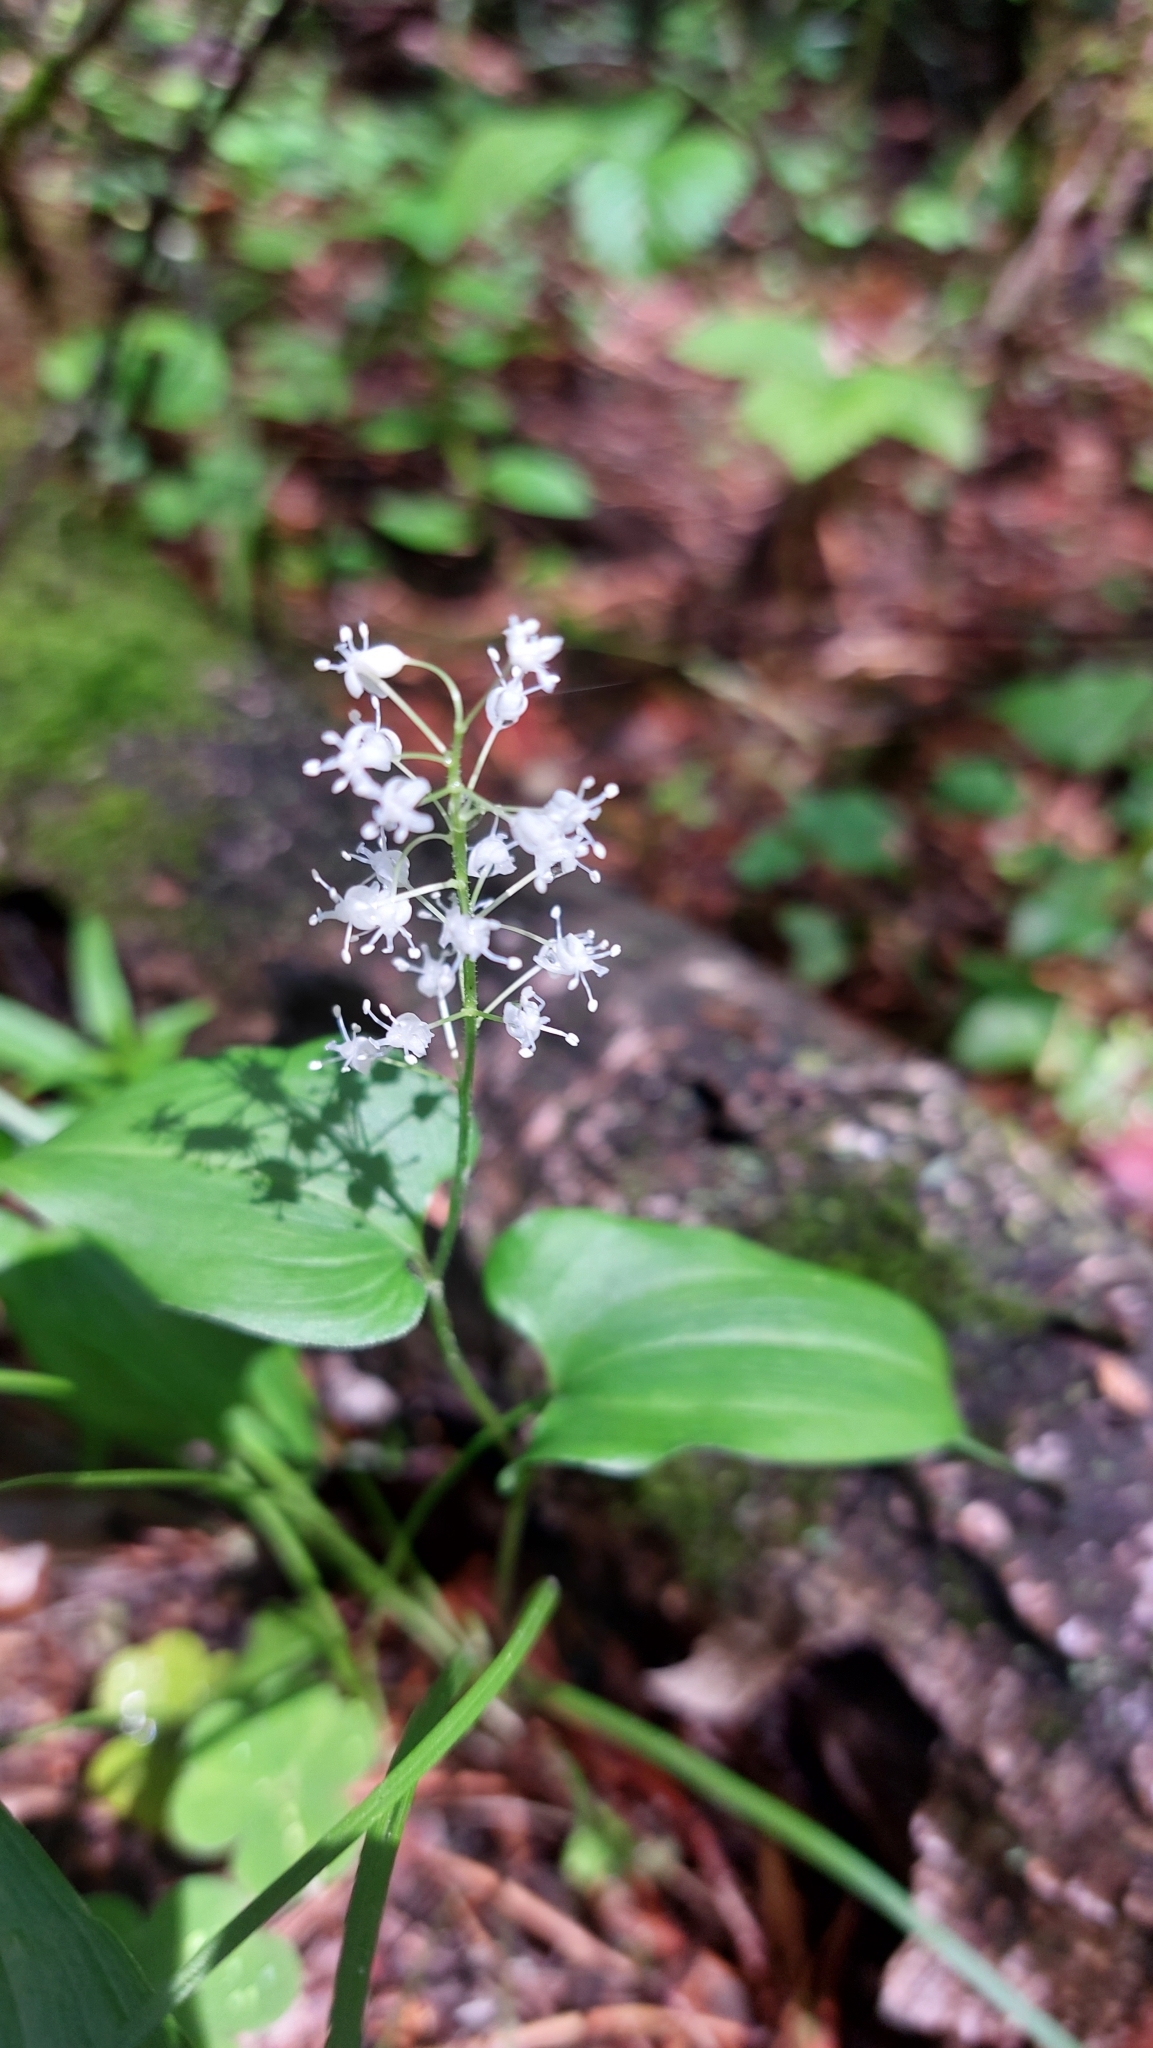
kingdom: Plantae
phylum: Tracheophyta
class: Liliopsida
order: Asparagales
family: Asparagaceae
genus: Maianthemum
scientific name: Maianthemum bifolium
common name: May lily
